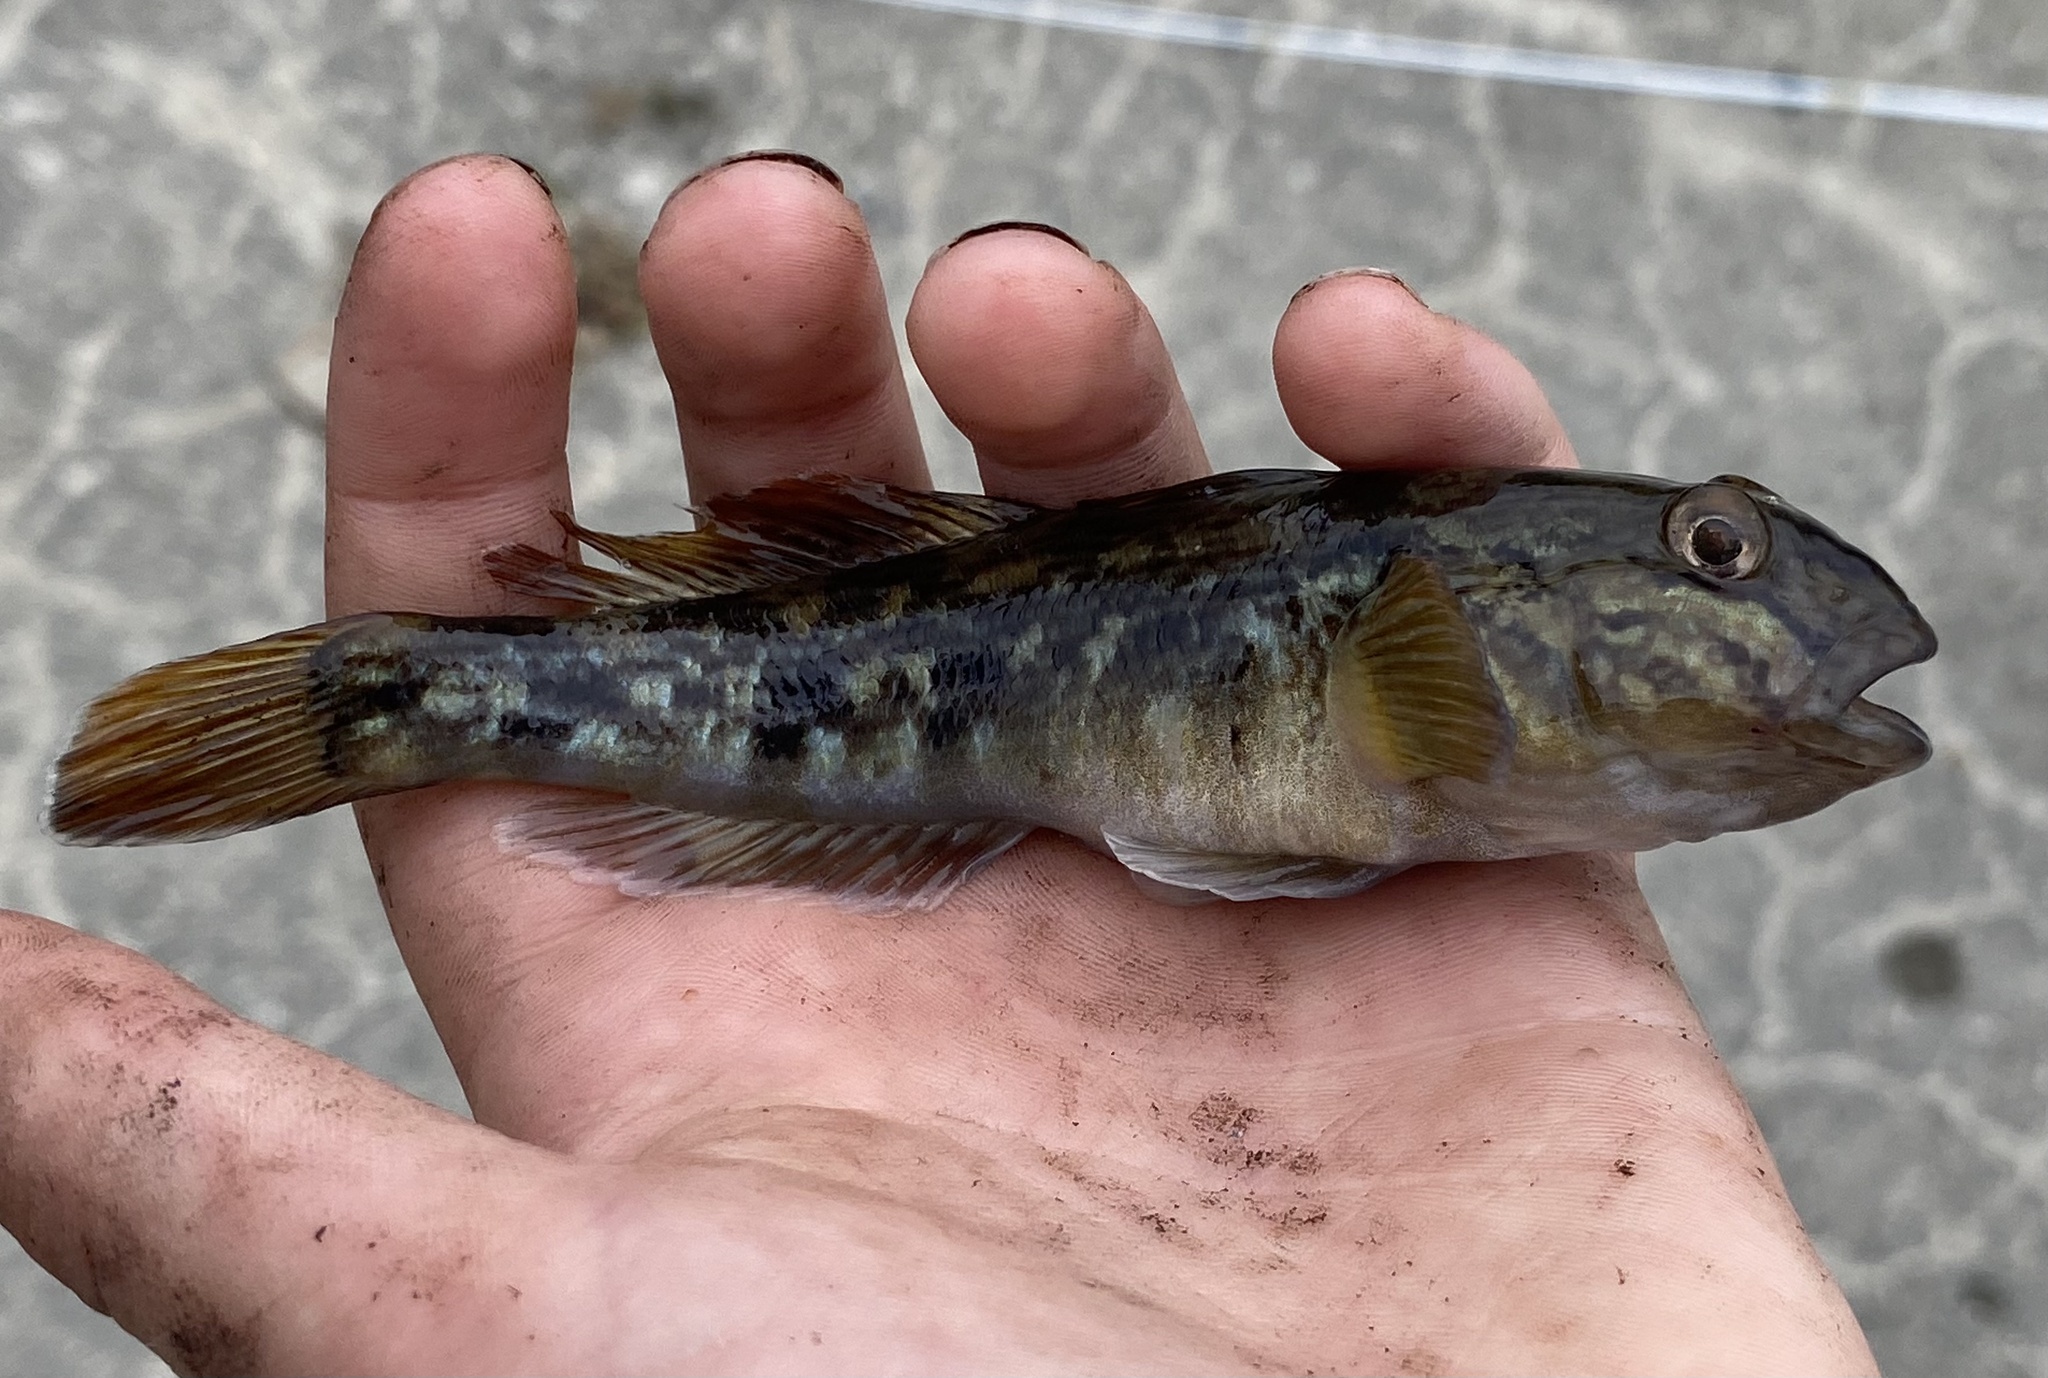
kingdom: Animalia
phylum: Chordata
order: Perciformes
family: Gobiidae
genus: Neogobius
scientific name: Neogobius melanostomus
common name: Round goby
